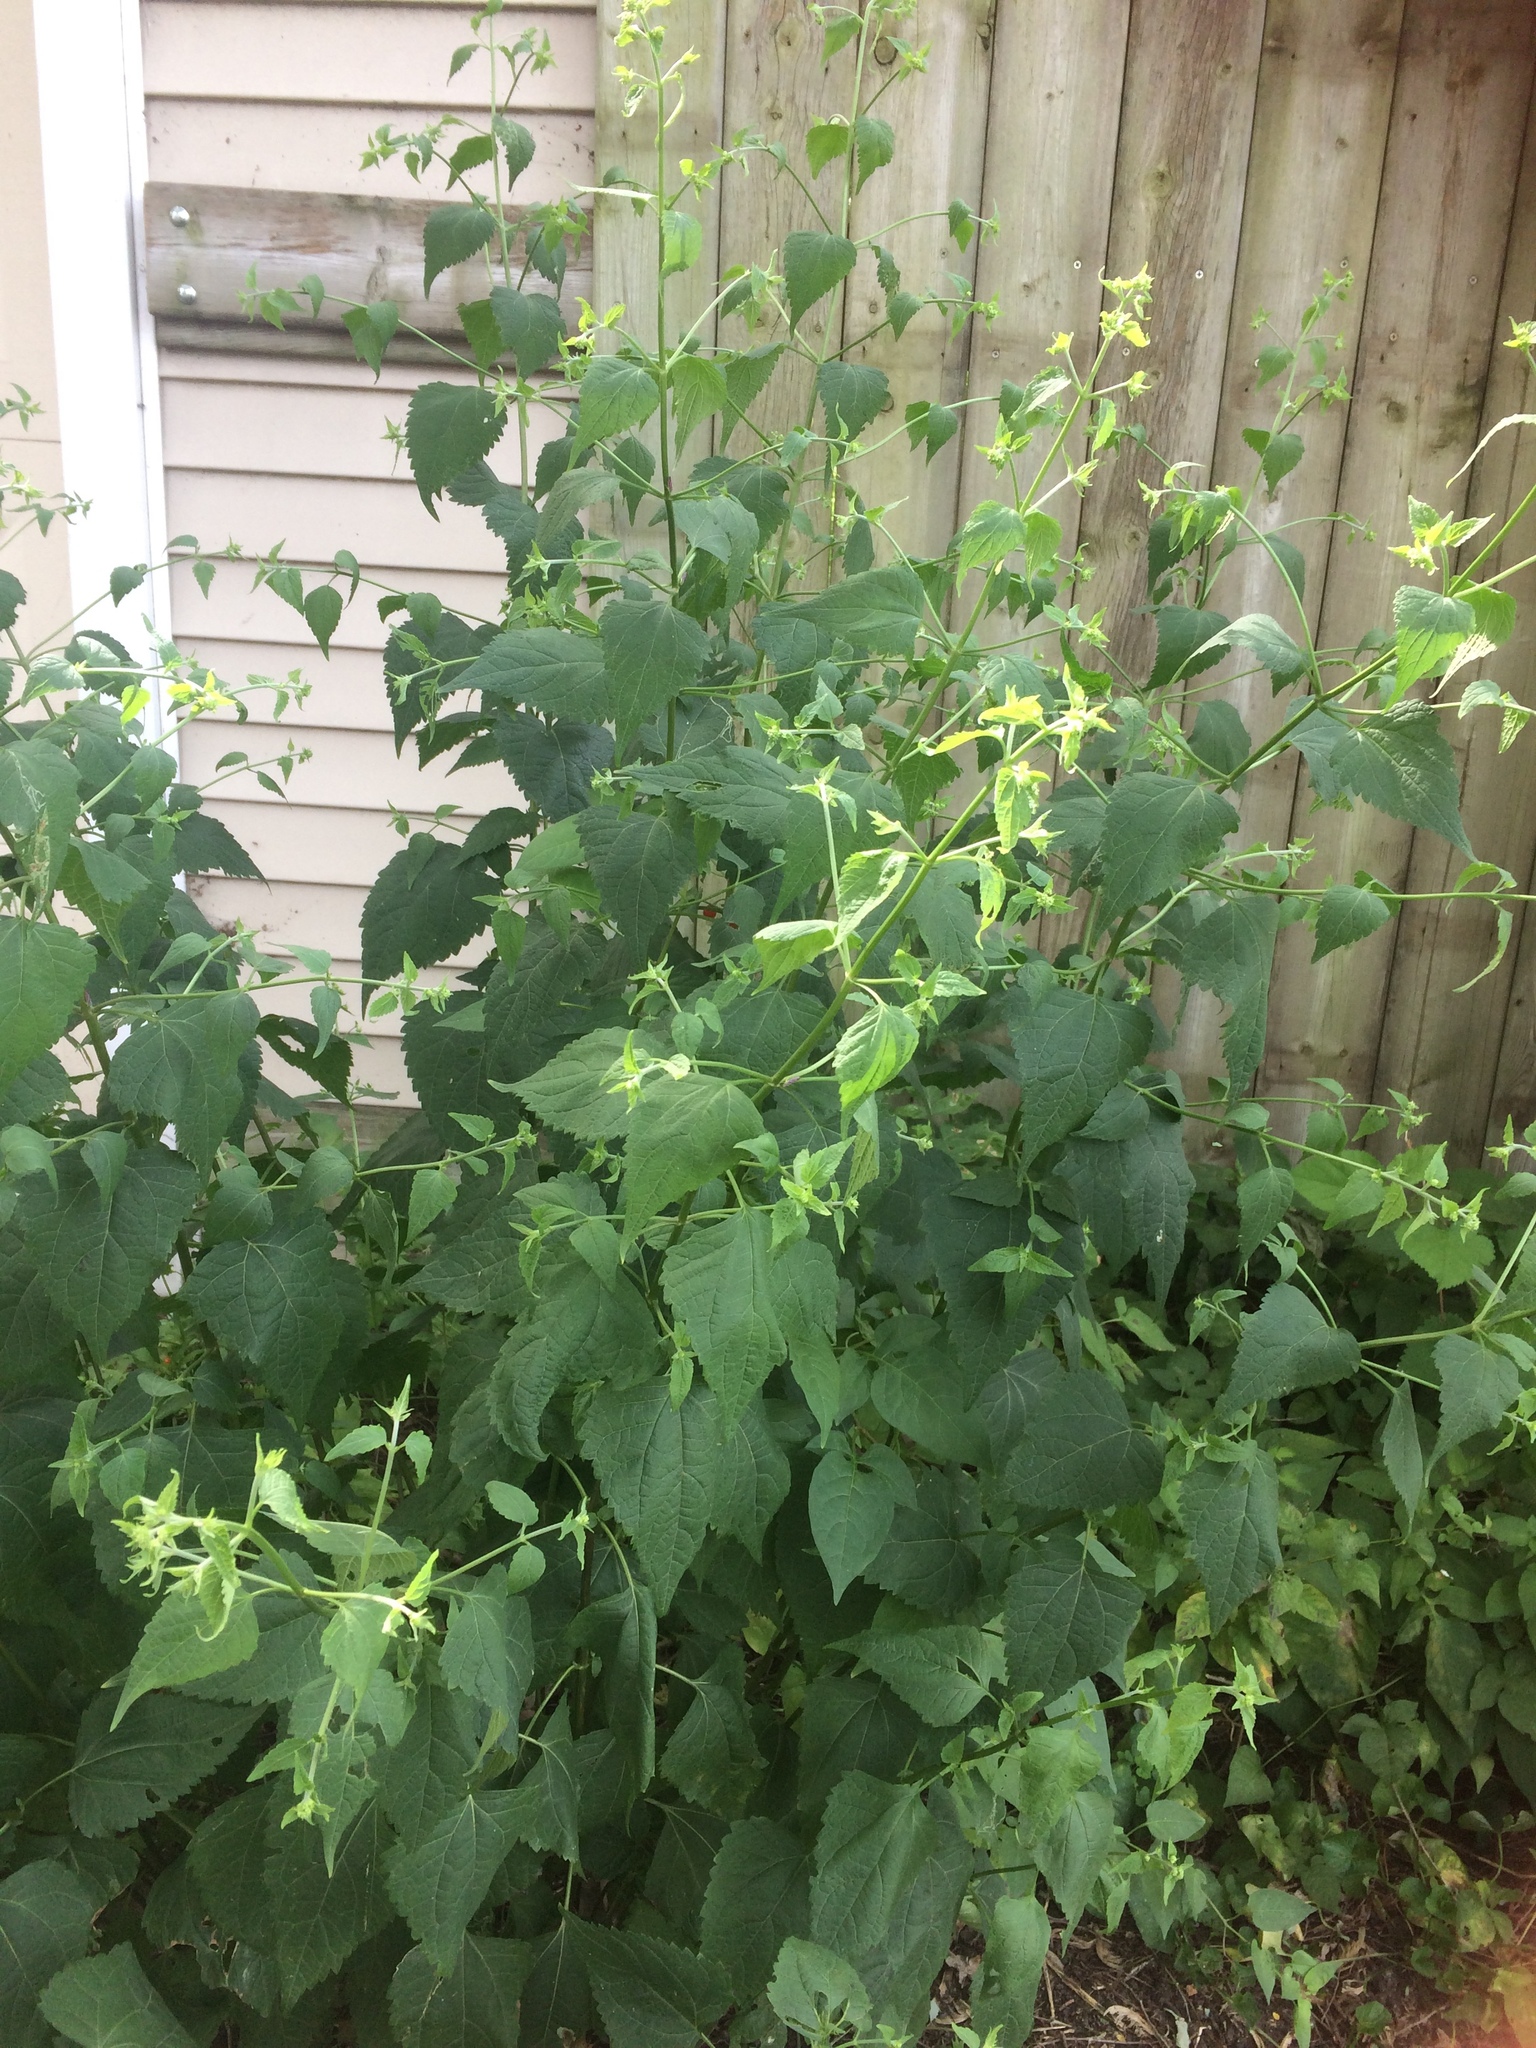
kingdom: Plantae
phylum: Tracheophyta
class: Magnoliopsida
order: Caryophyllales
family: Nyctaginaceae
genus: Mirabilis
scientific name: Mirabilis jalapa
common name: Marvel-of-peru
